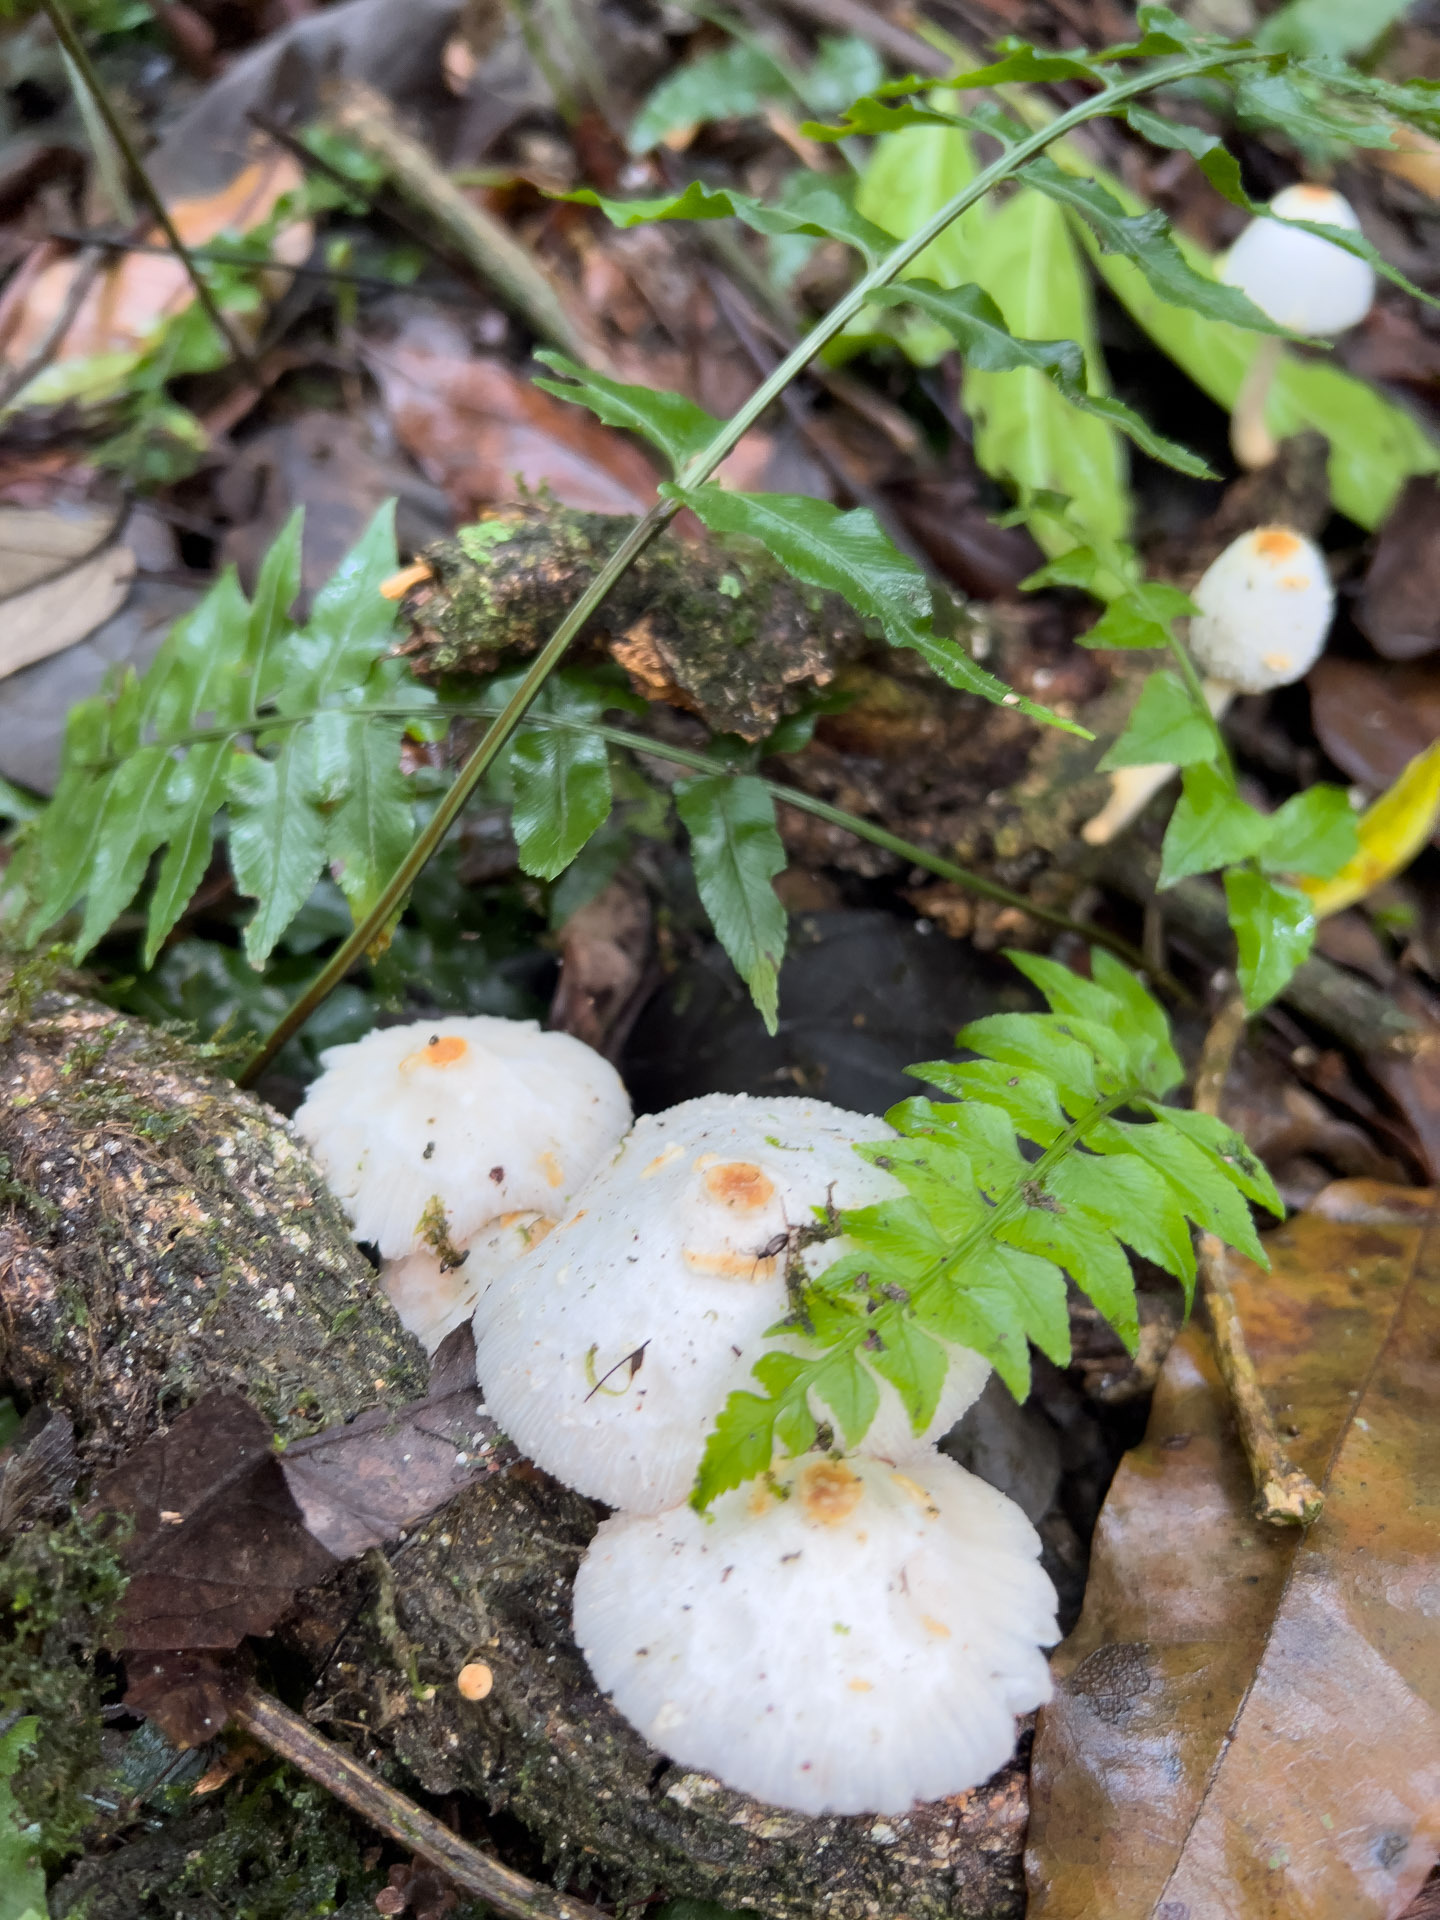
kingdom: Fungi
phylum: Basidiomycota
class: Agaricomycetes
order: Agaricales
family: Agaricaceae
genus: Leucocoprinus
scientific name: Leucocoprinus cepistipes
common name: Onion-stalk parasol
